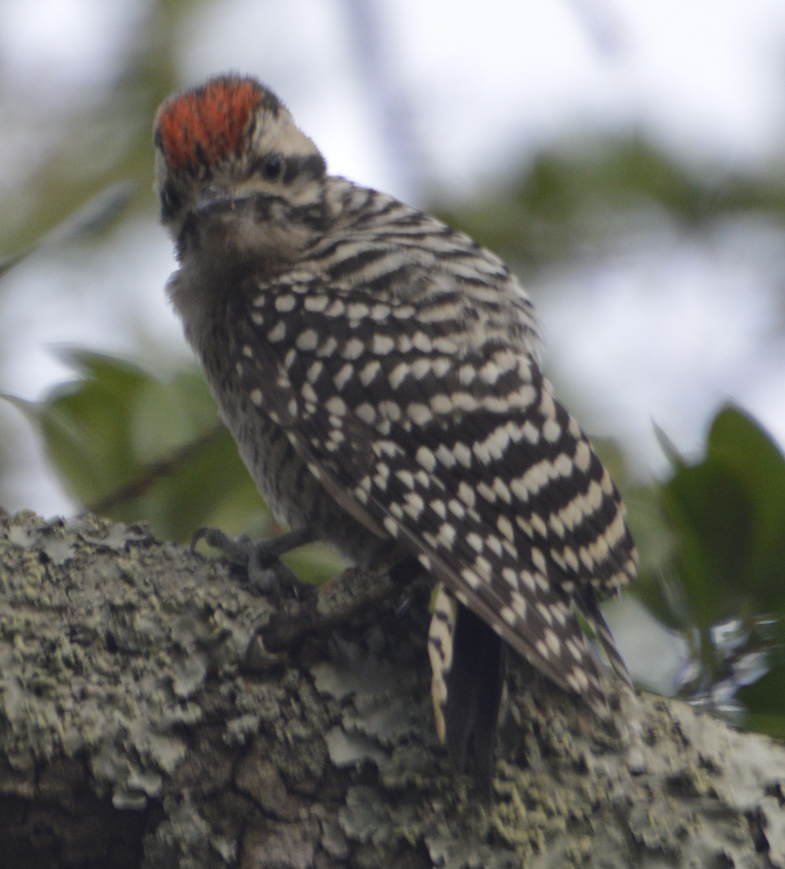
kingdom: Animalia
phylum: Chordata
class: Aves
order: Piciformes
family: Picidae
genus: Dryobates
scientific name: Dryobates scalaris
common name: Ladder-backed woodpecker
